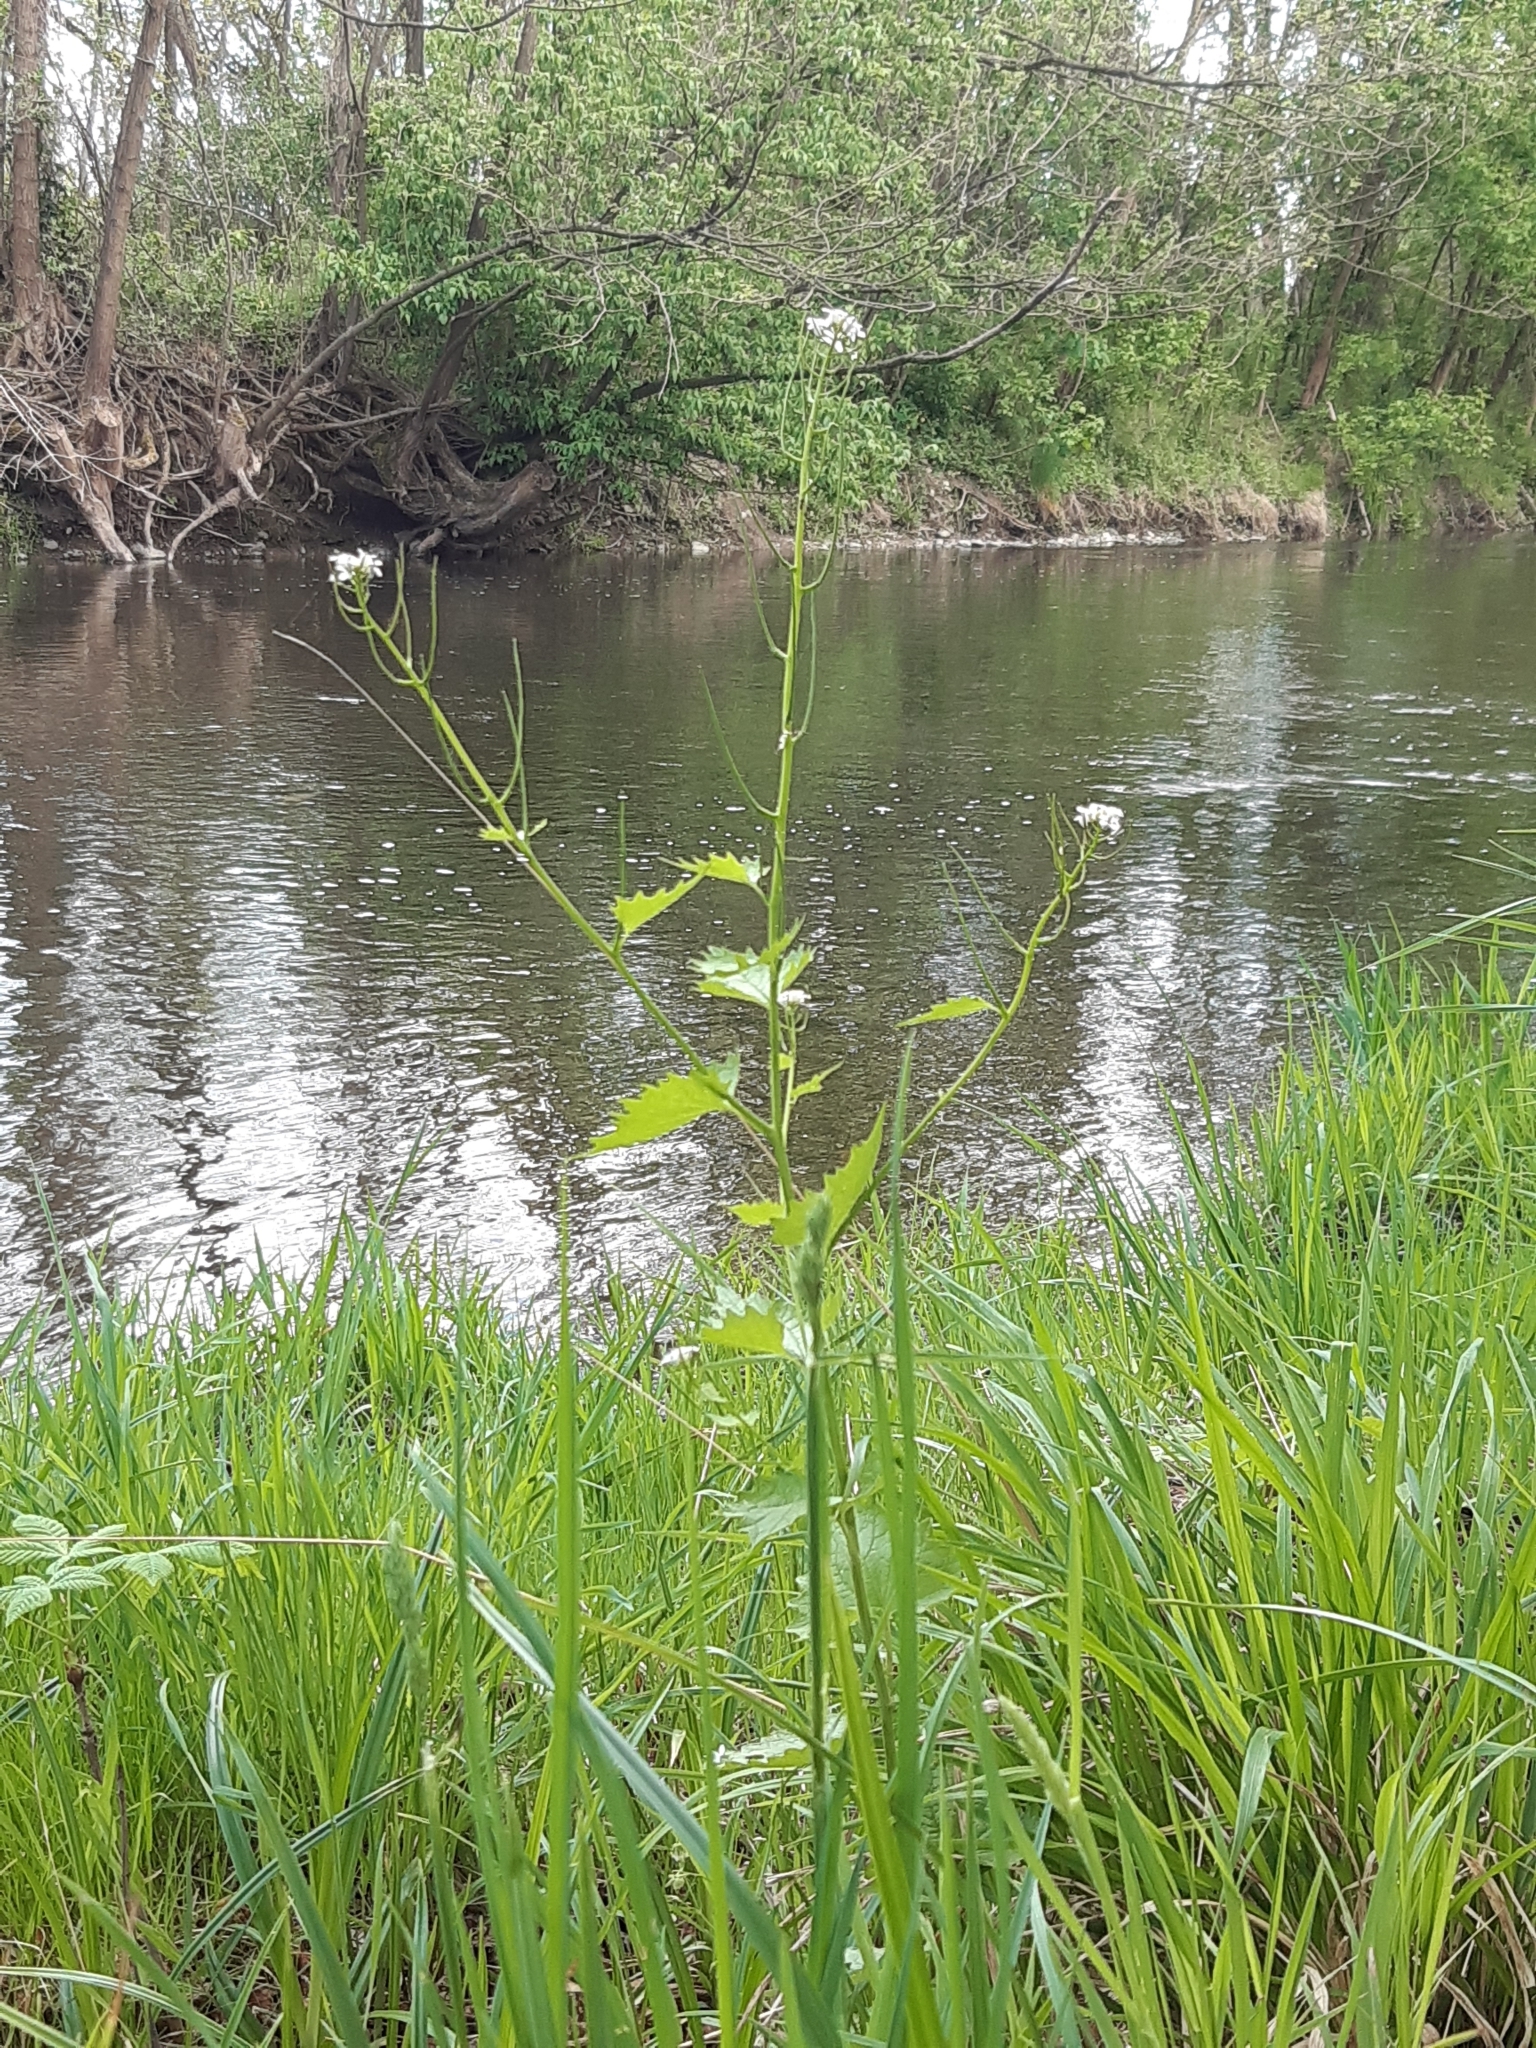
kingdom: Plantae
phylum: Tracheophyta
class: Magnoliopsida
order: Brassicales
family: Brassicaceae
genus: Alliaria
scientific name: Alliaria petiolata
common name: Garlic mustard
